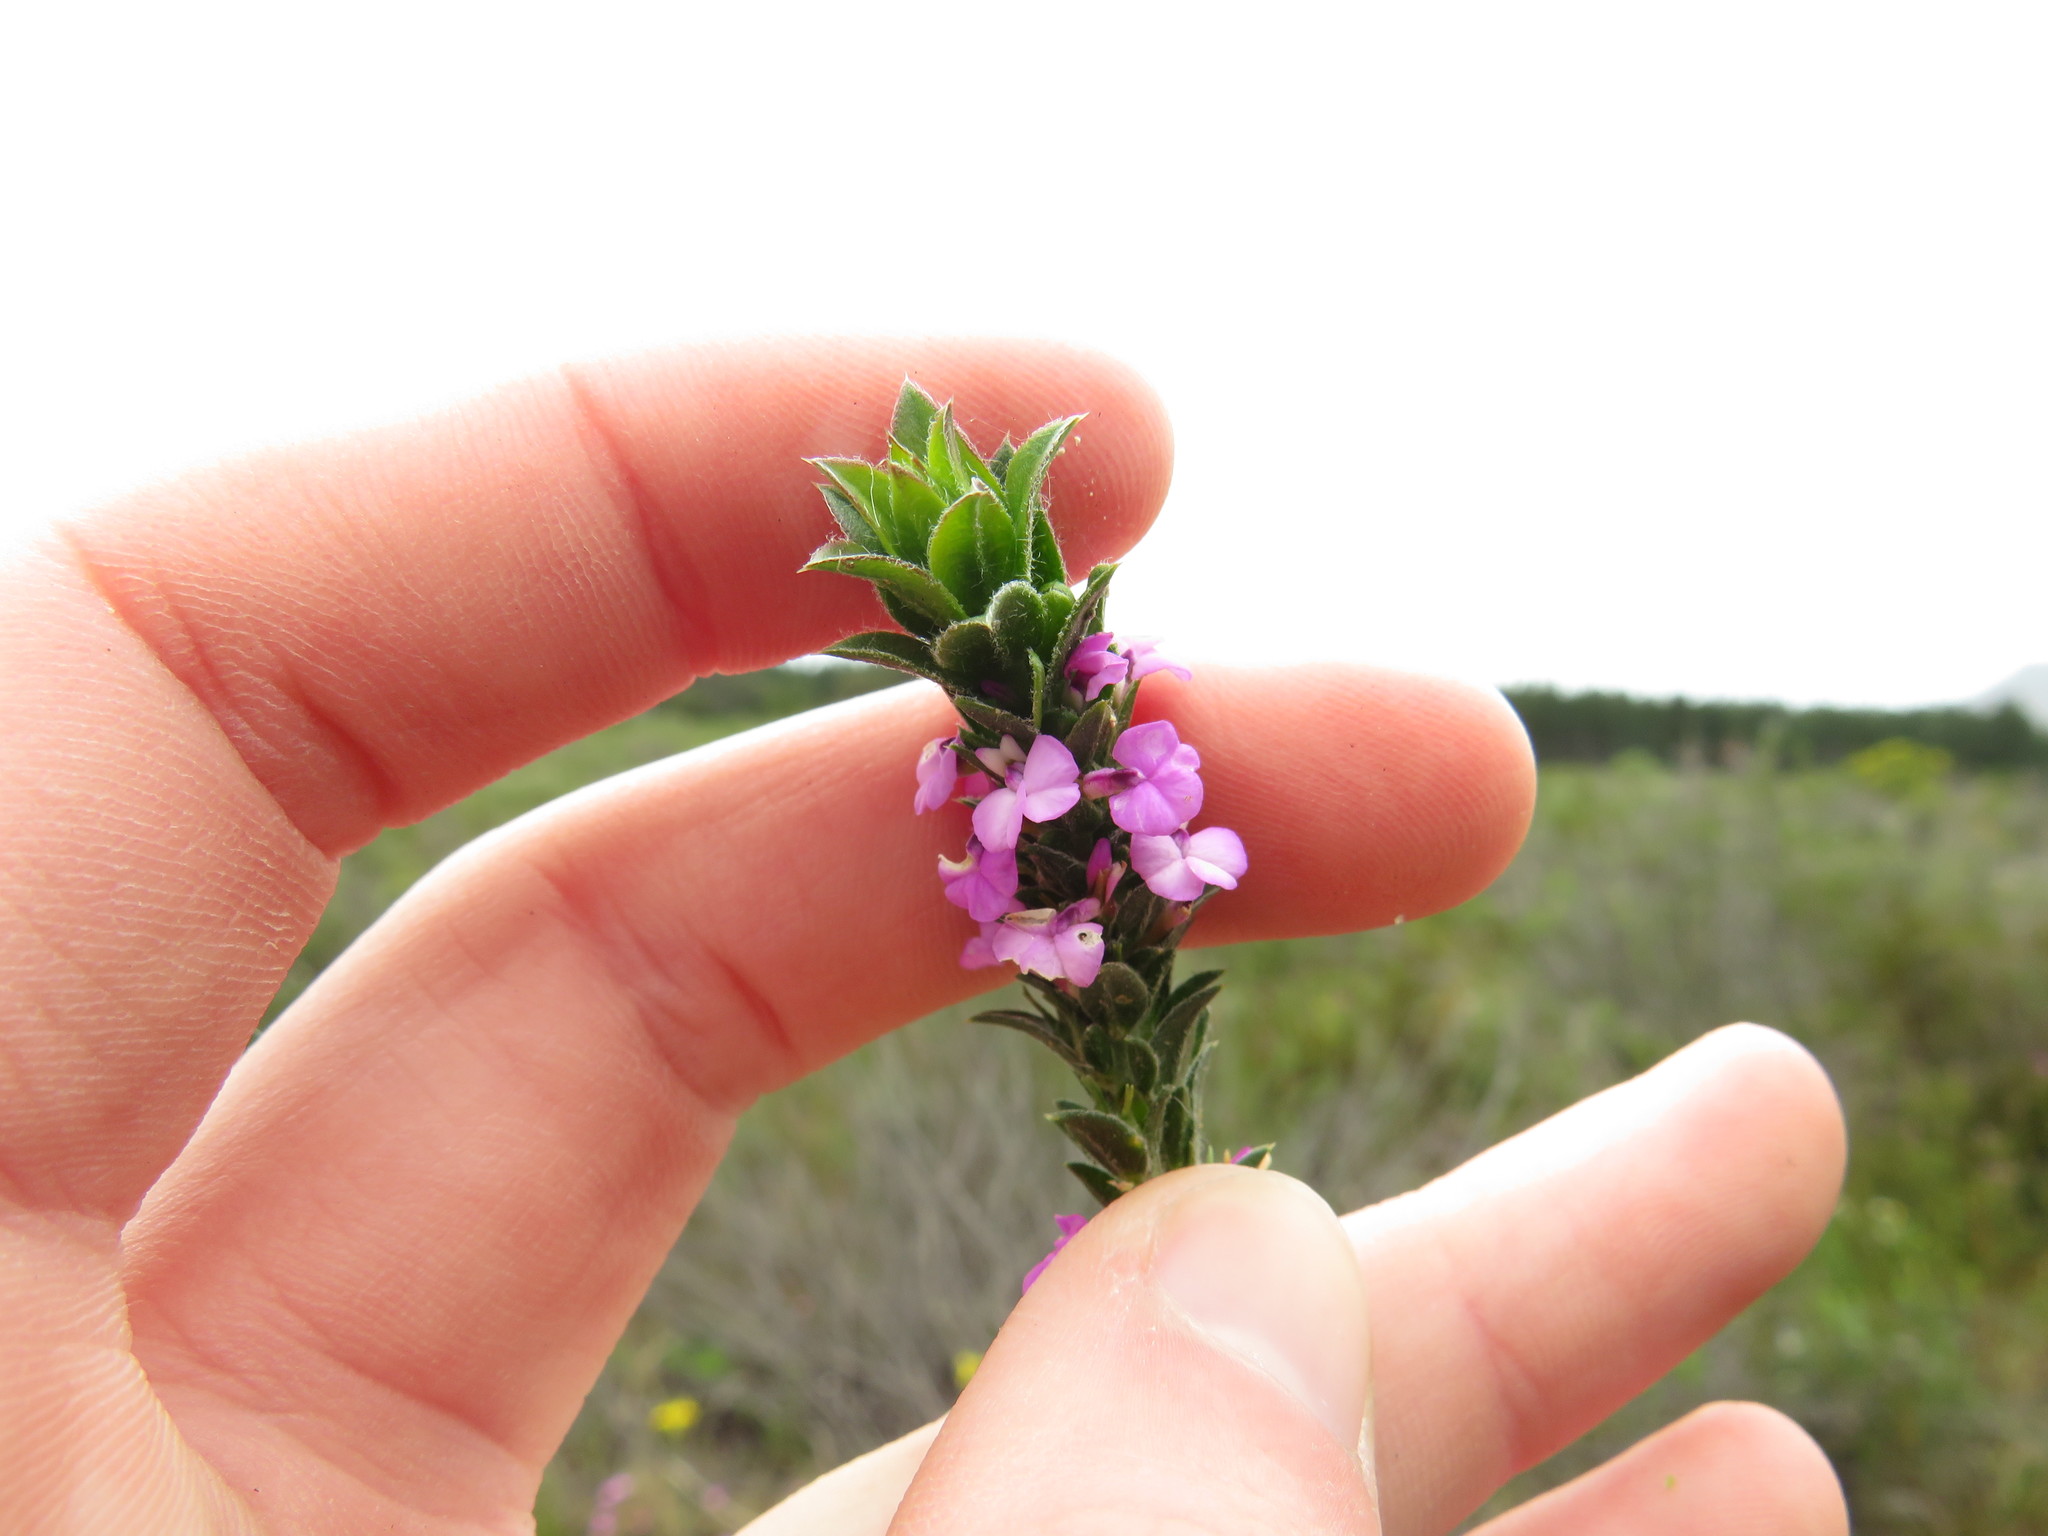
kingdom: Plantae
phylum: Tracheophyta
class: Magnoliopsida
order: Fabales
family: Polygalaceae
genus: Muraltia
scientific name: Muraltia thymifolia
